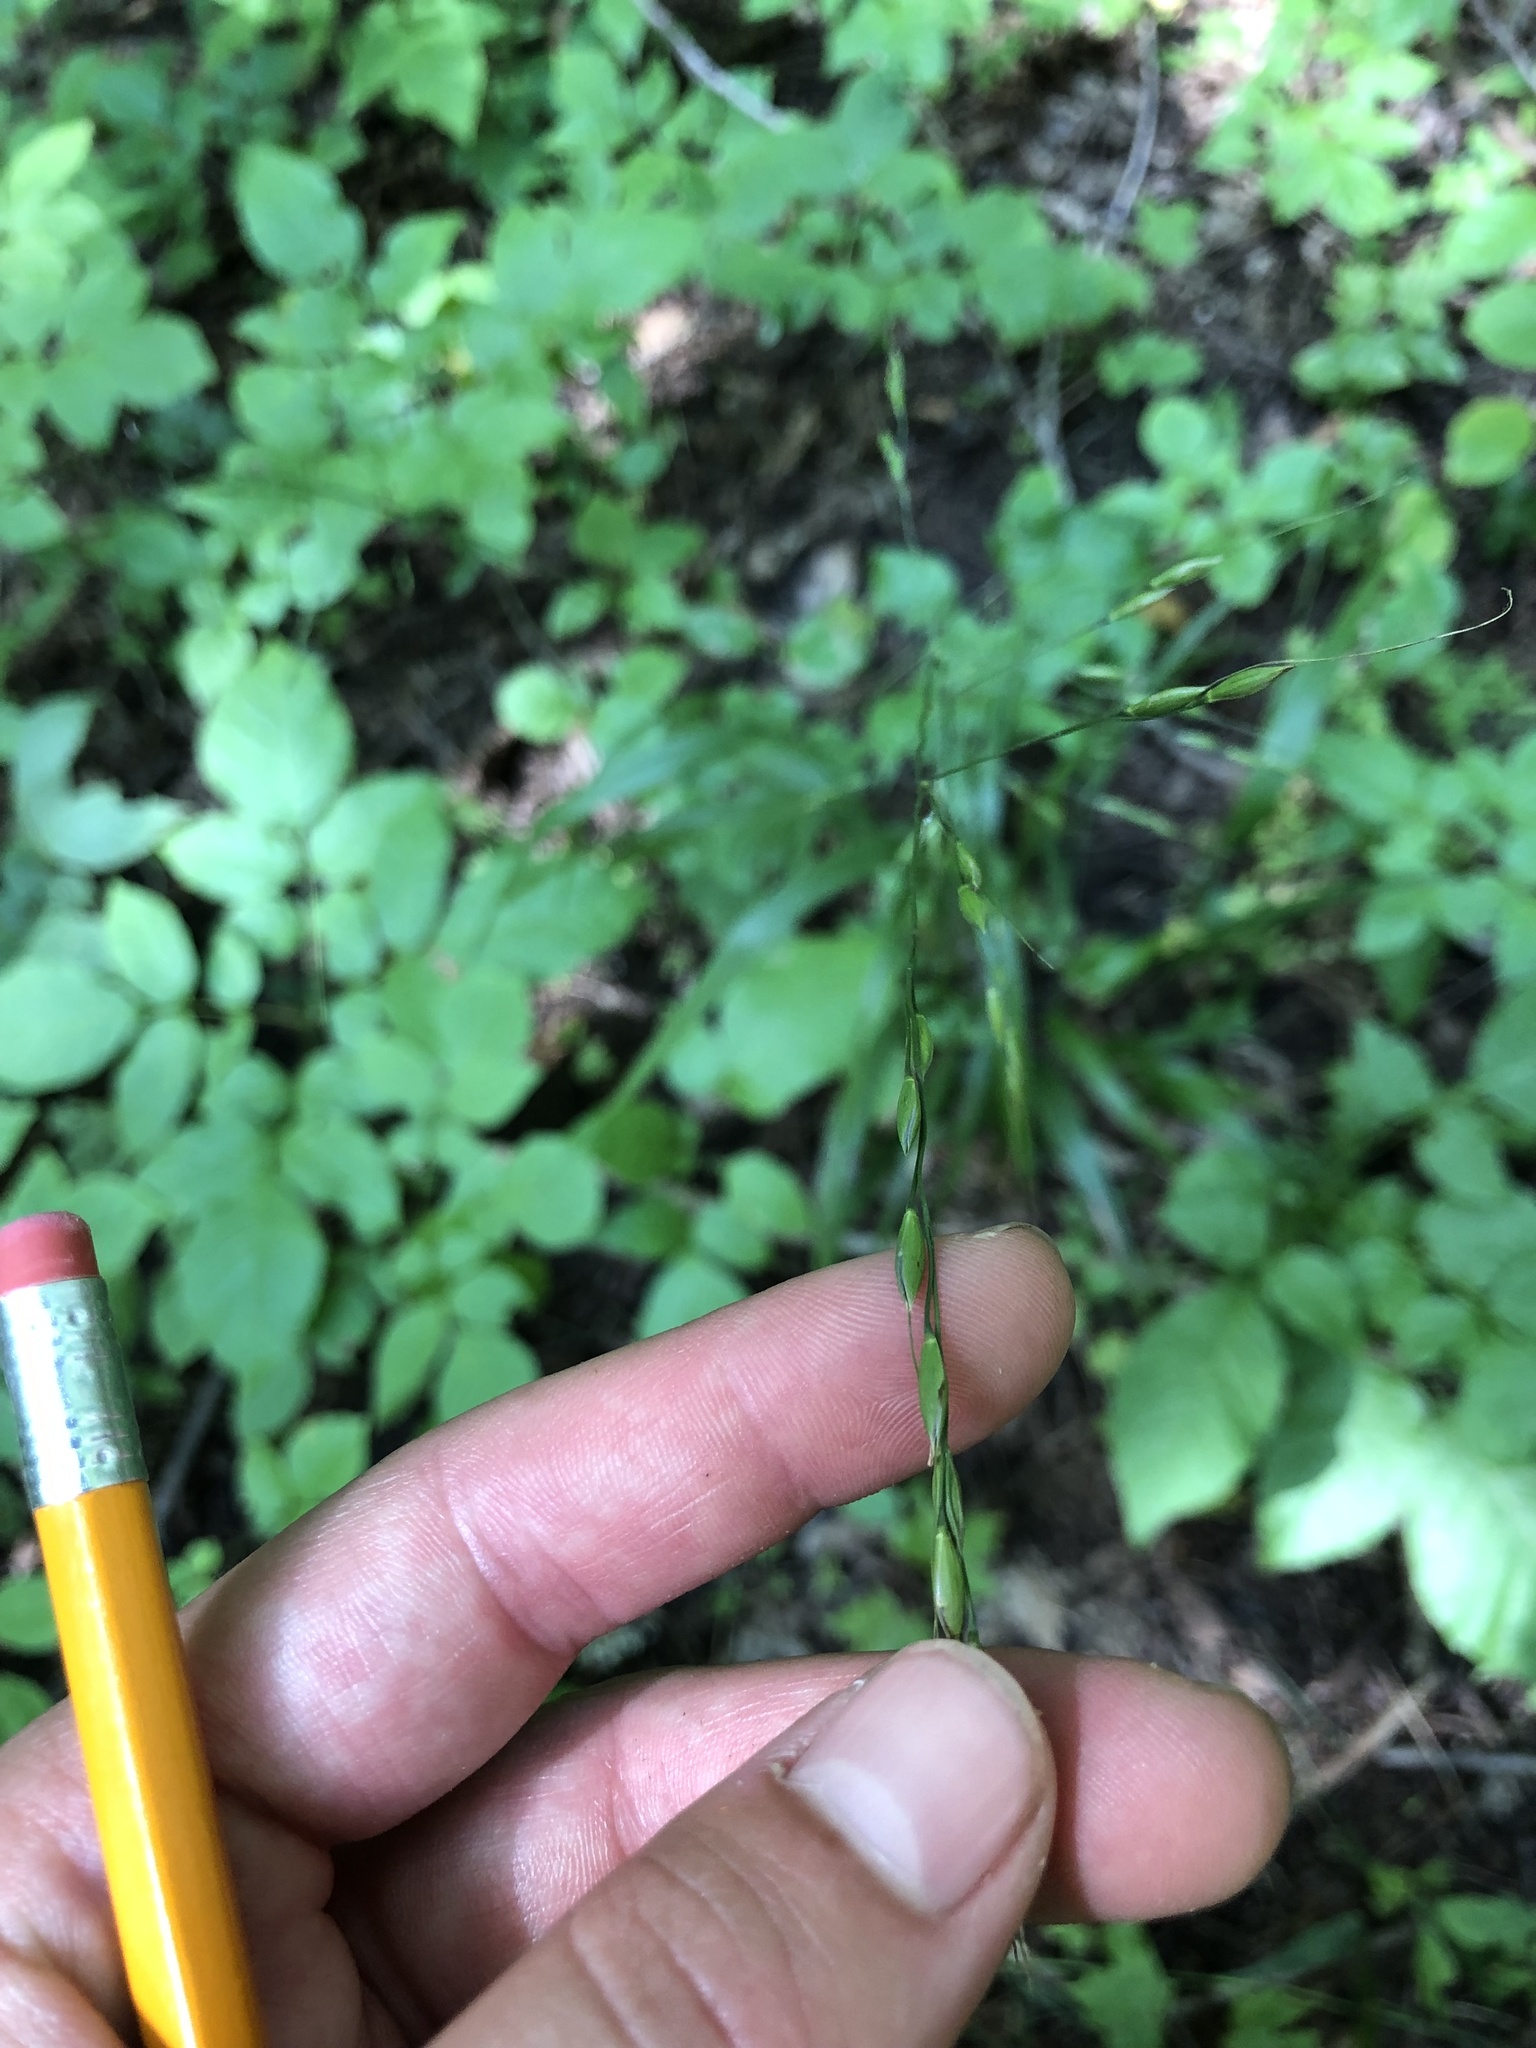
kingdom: Plantae
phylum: Tracheophyta
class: Liliopsida
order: Poales
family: Poaceae
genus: Patis
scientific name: Patis racemosa
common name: Black-fruited mountain rice
